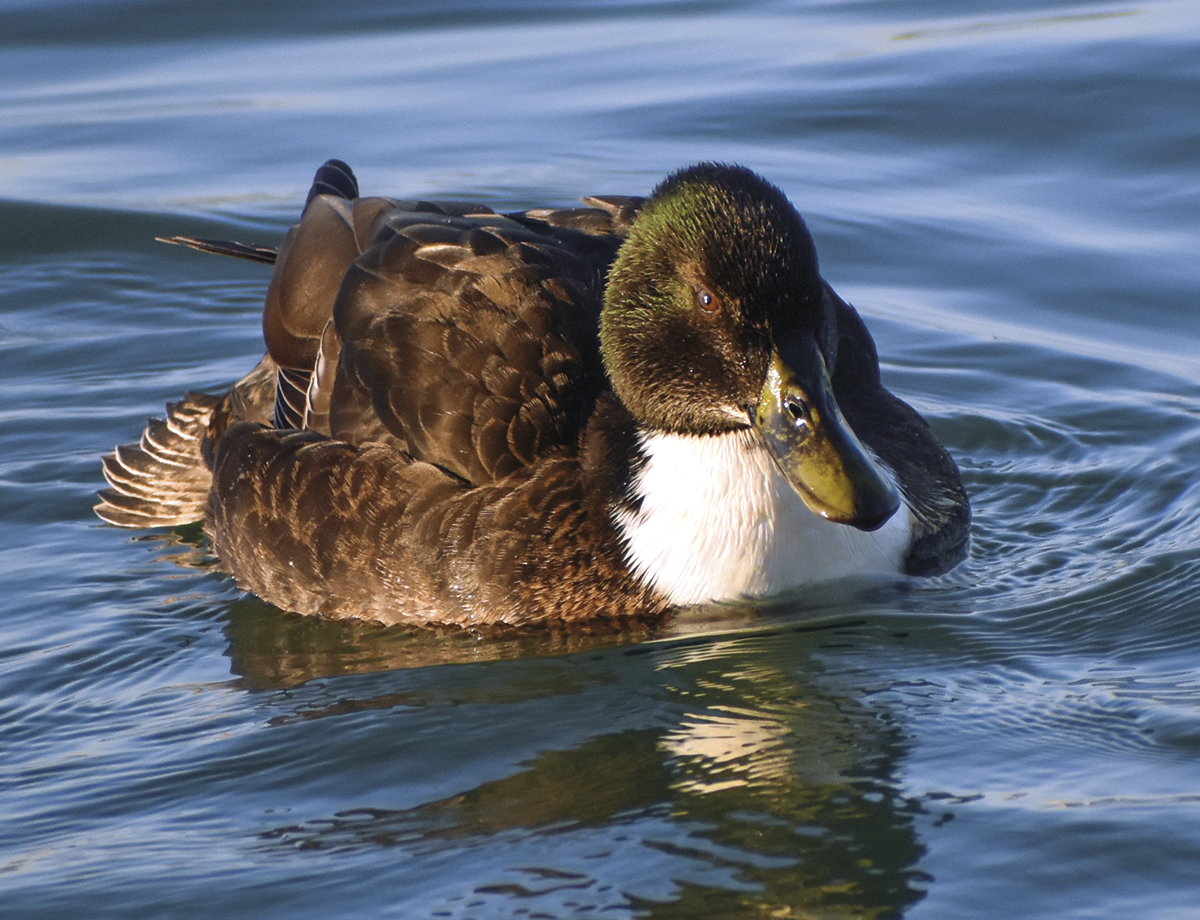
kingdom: Animalia
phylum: Chordata
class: Aves
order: Anseriformes
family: Anatidae
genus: Anas
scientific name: Anas platyrhynchos
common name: Mallard
